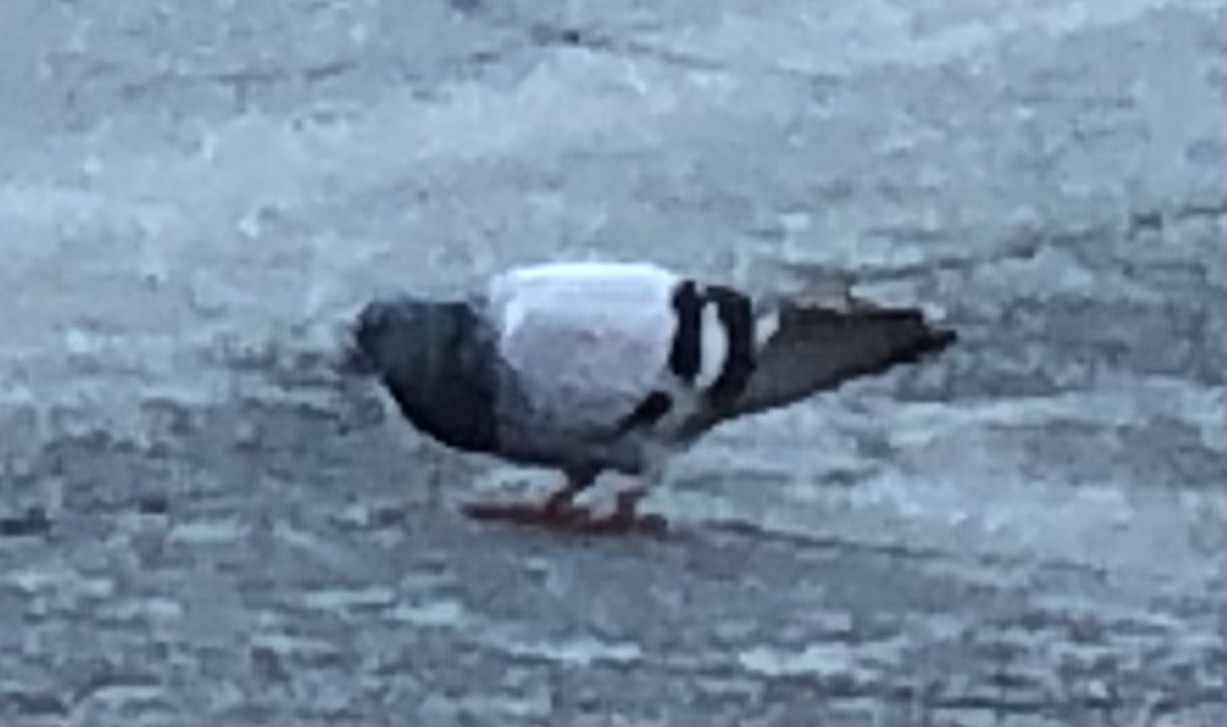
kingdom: Animalia
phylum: Chordata
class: Aves
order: Columbiformes
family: Columbidae
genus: Columba
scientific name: Columba livia
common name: Rock pigeon
